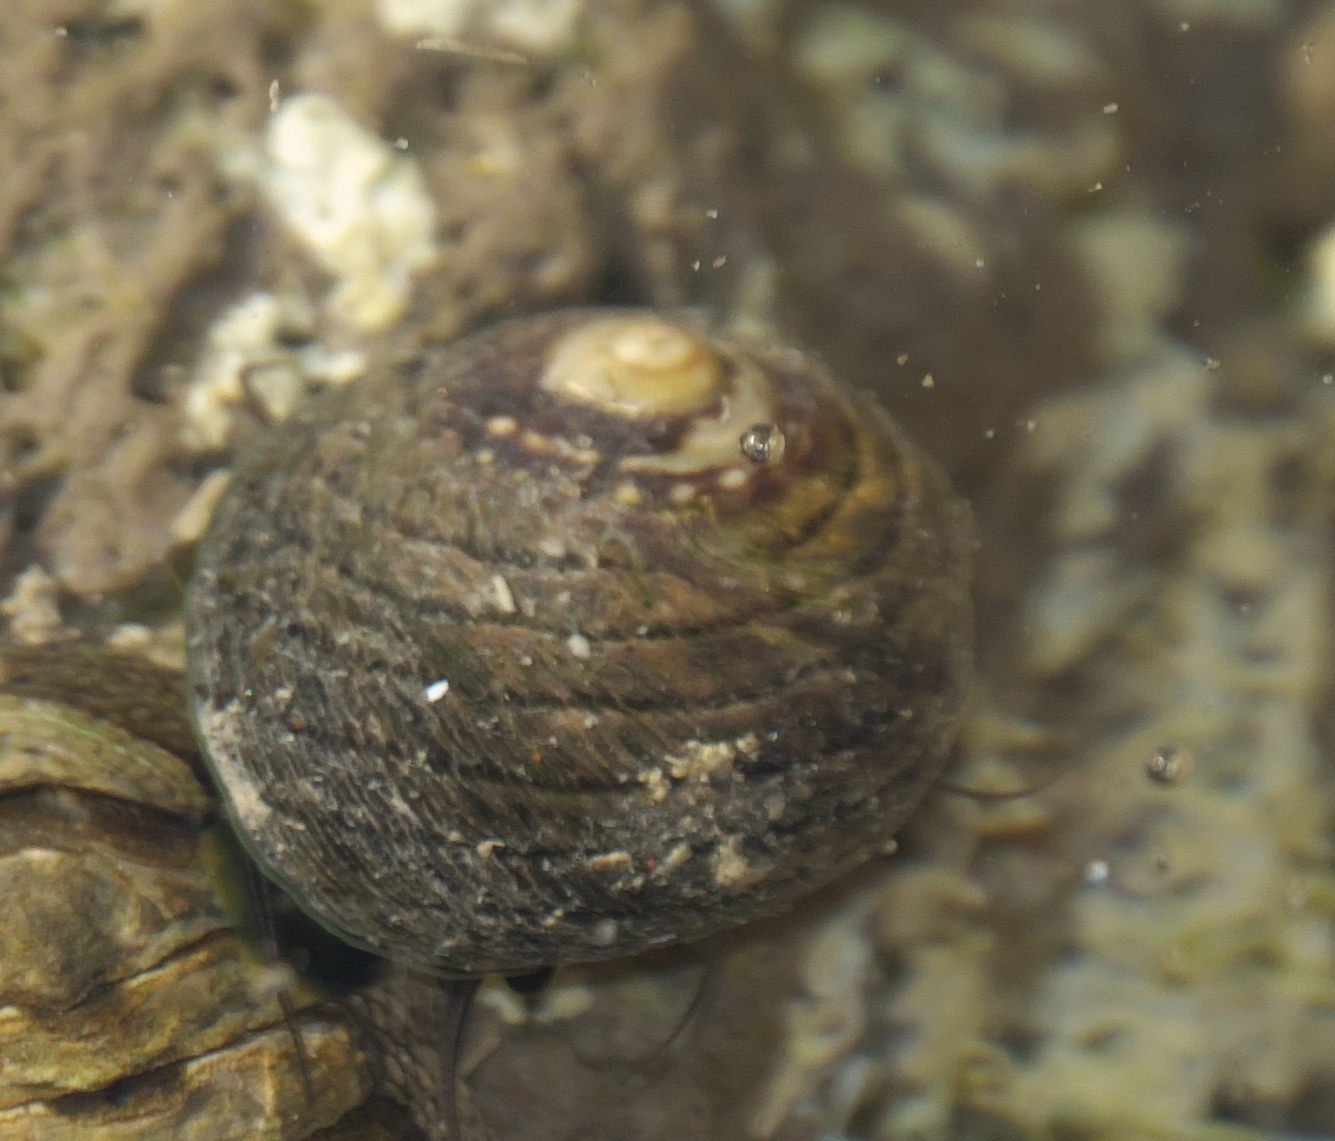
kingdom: Animalia
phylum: Mollusca
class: Gastropoda
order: Trochida
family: Trochidae
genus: Diloma
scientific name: Diloma aethiops
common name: Scorched monodont
